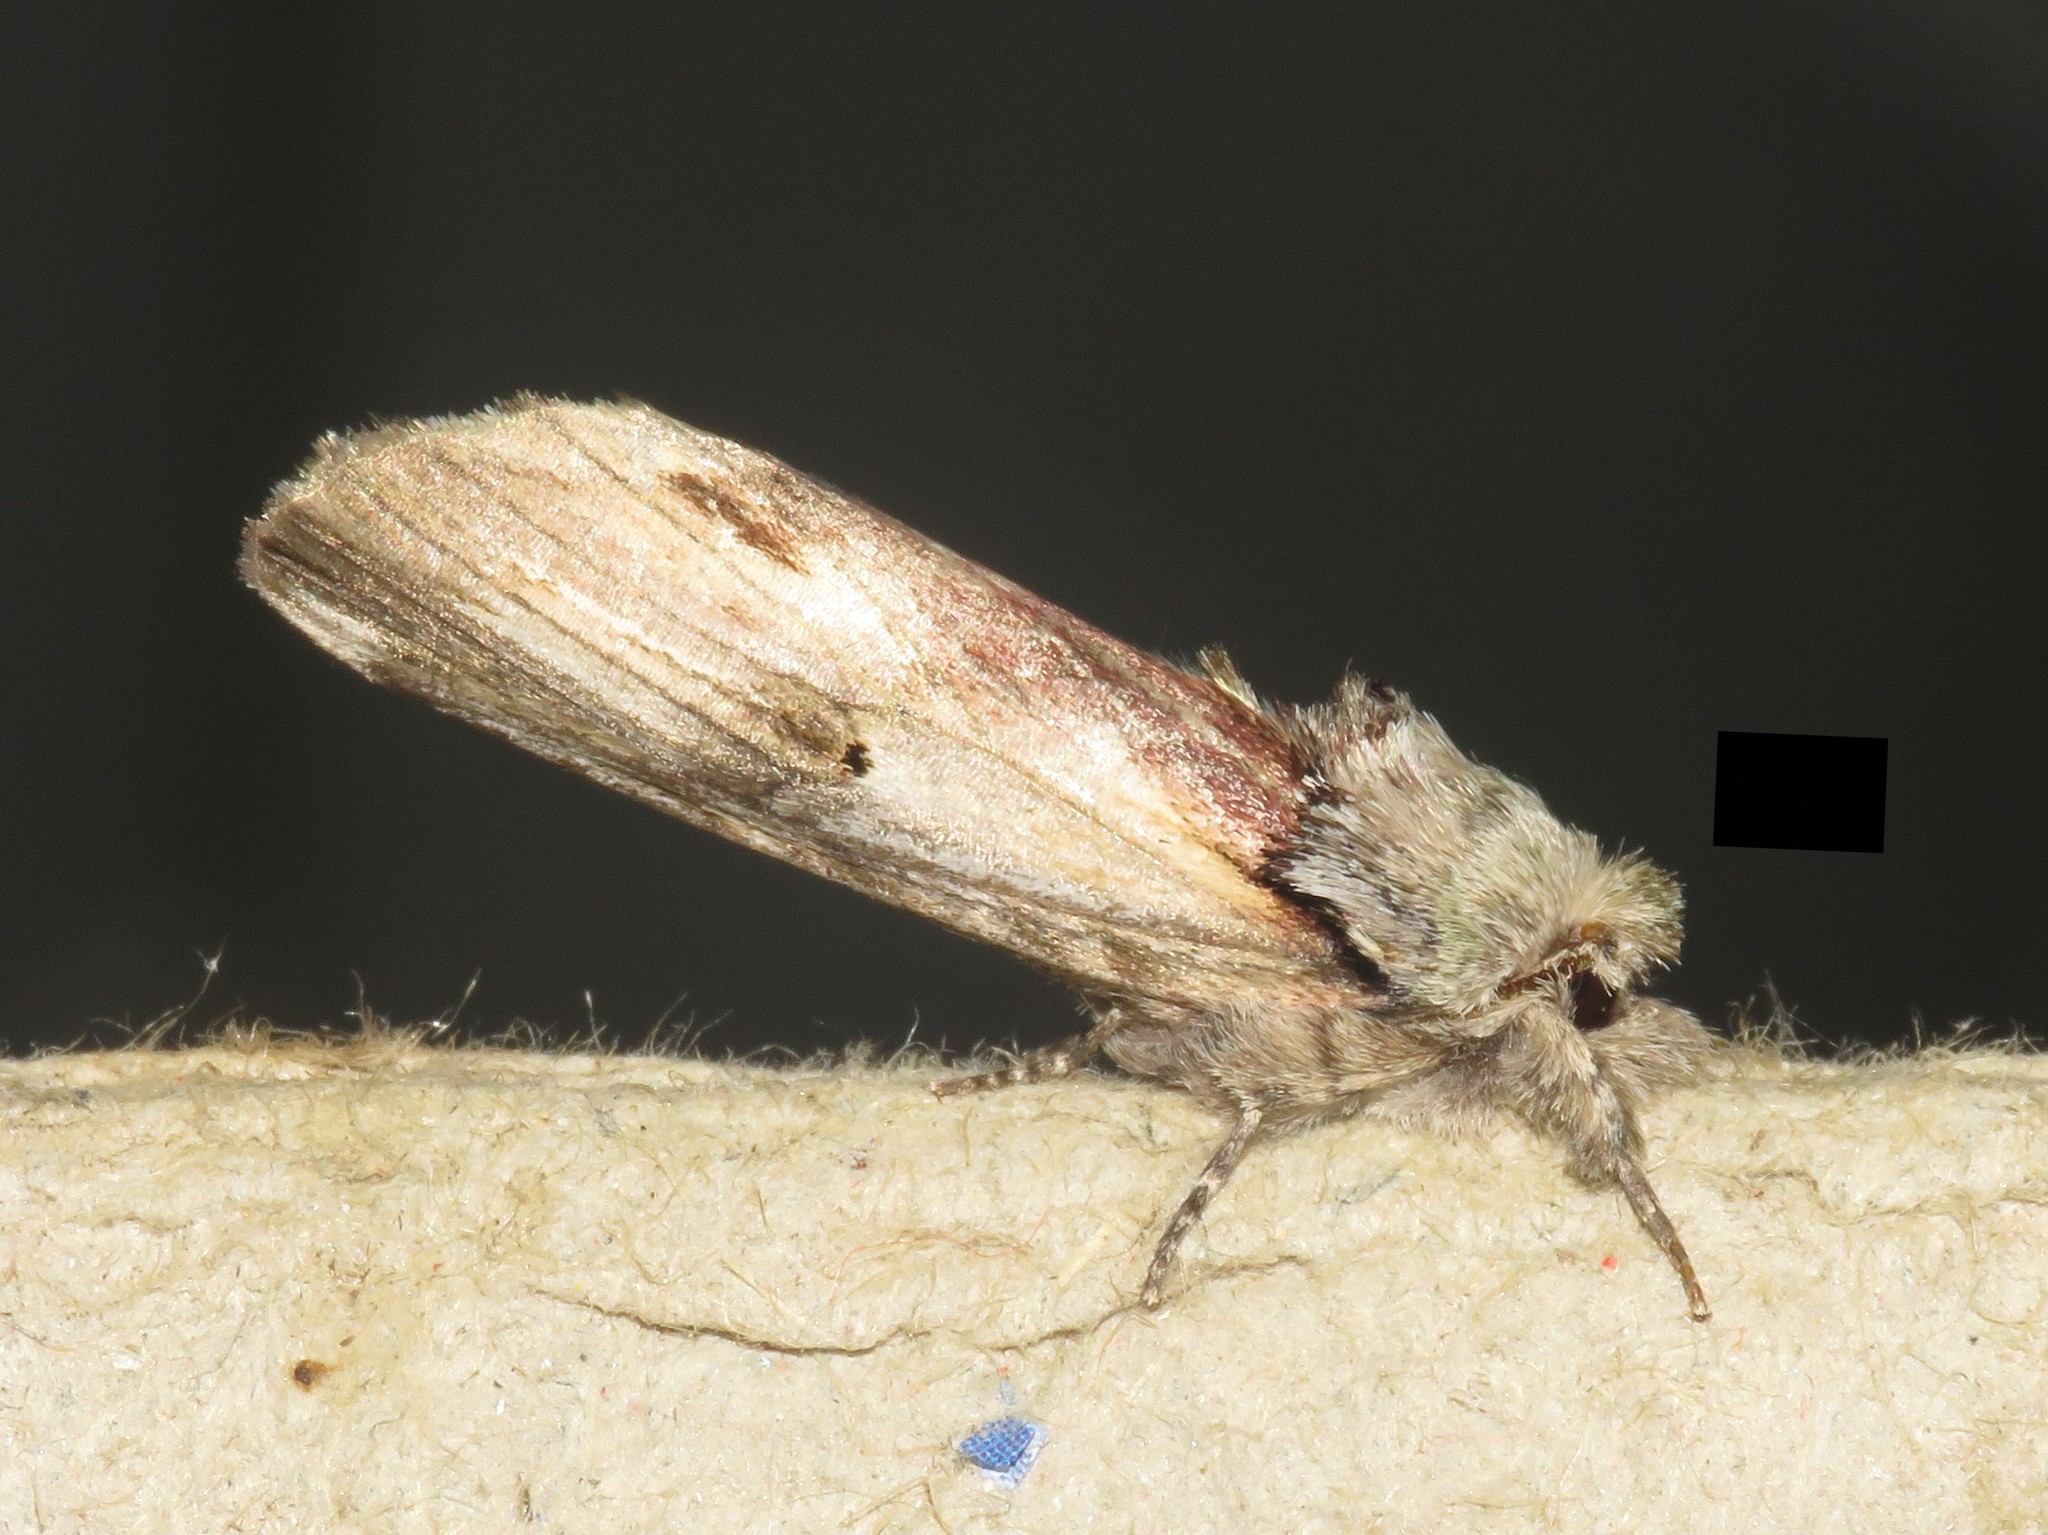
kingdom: Animalia
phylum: Arthropoda
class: Insecta
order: Lepidoptera
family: Notodontidae
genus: Schizura
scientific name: Schizura
